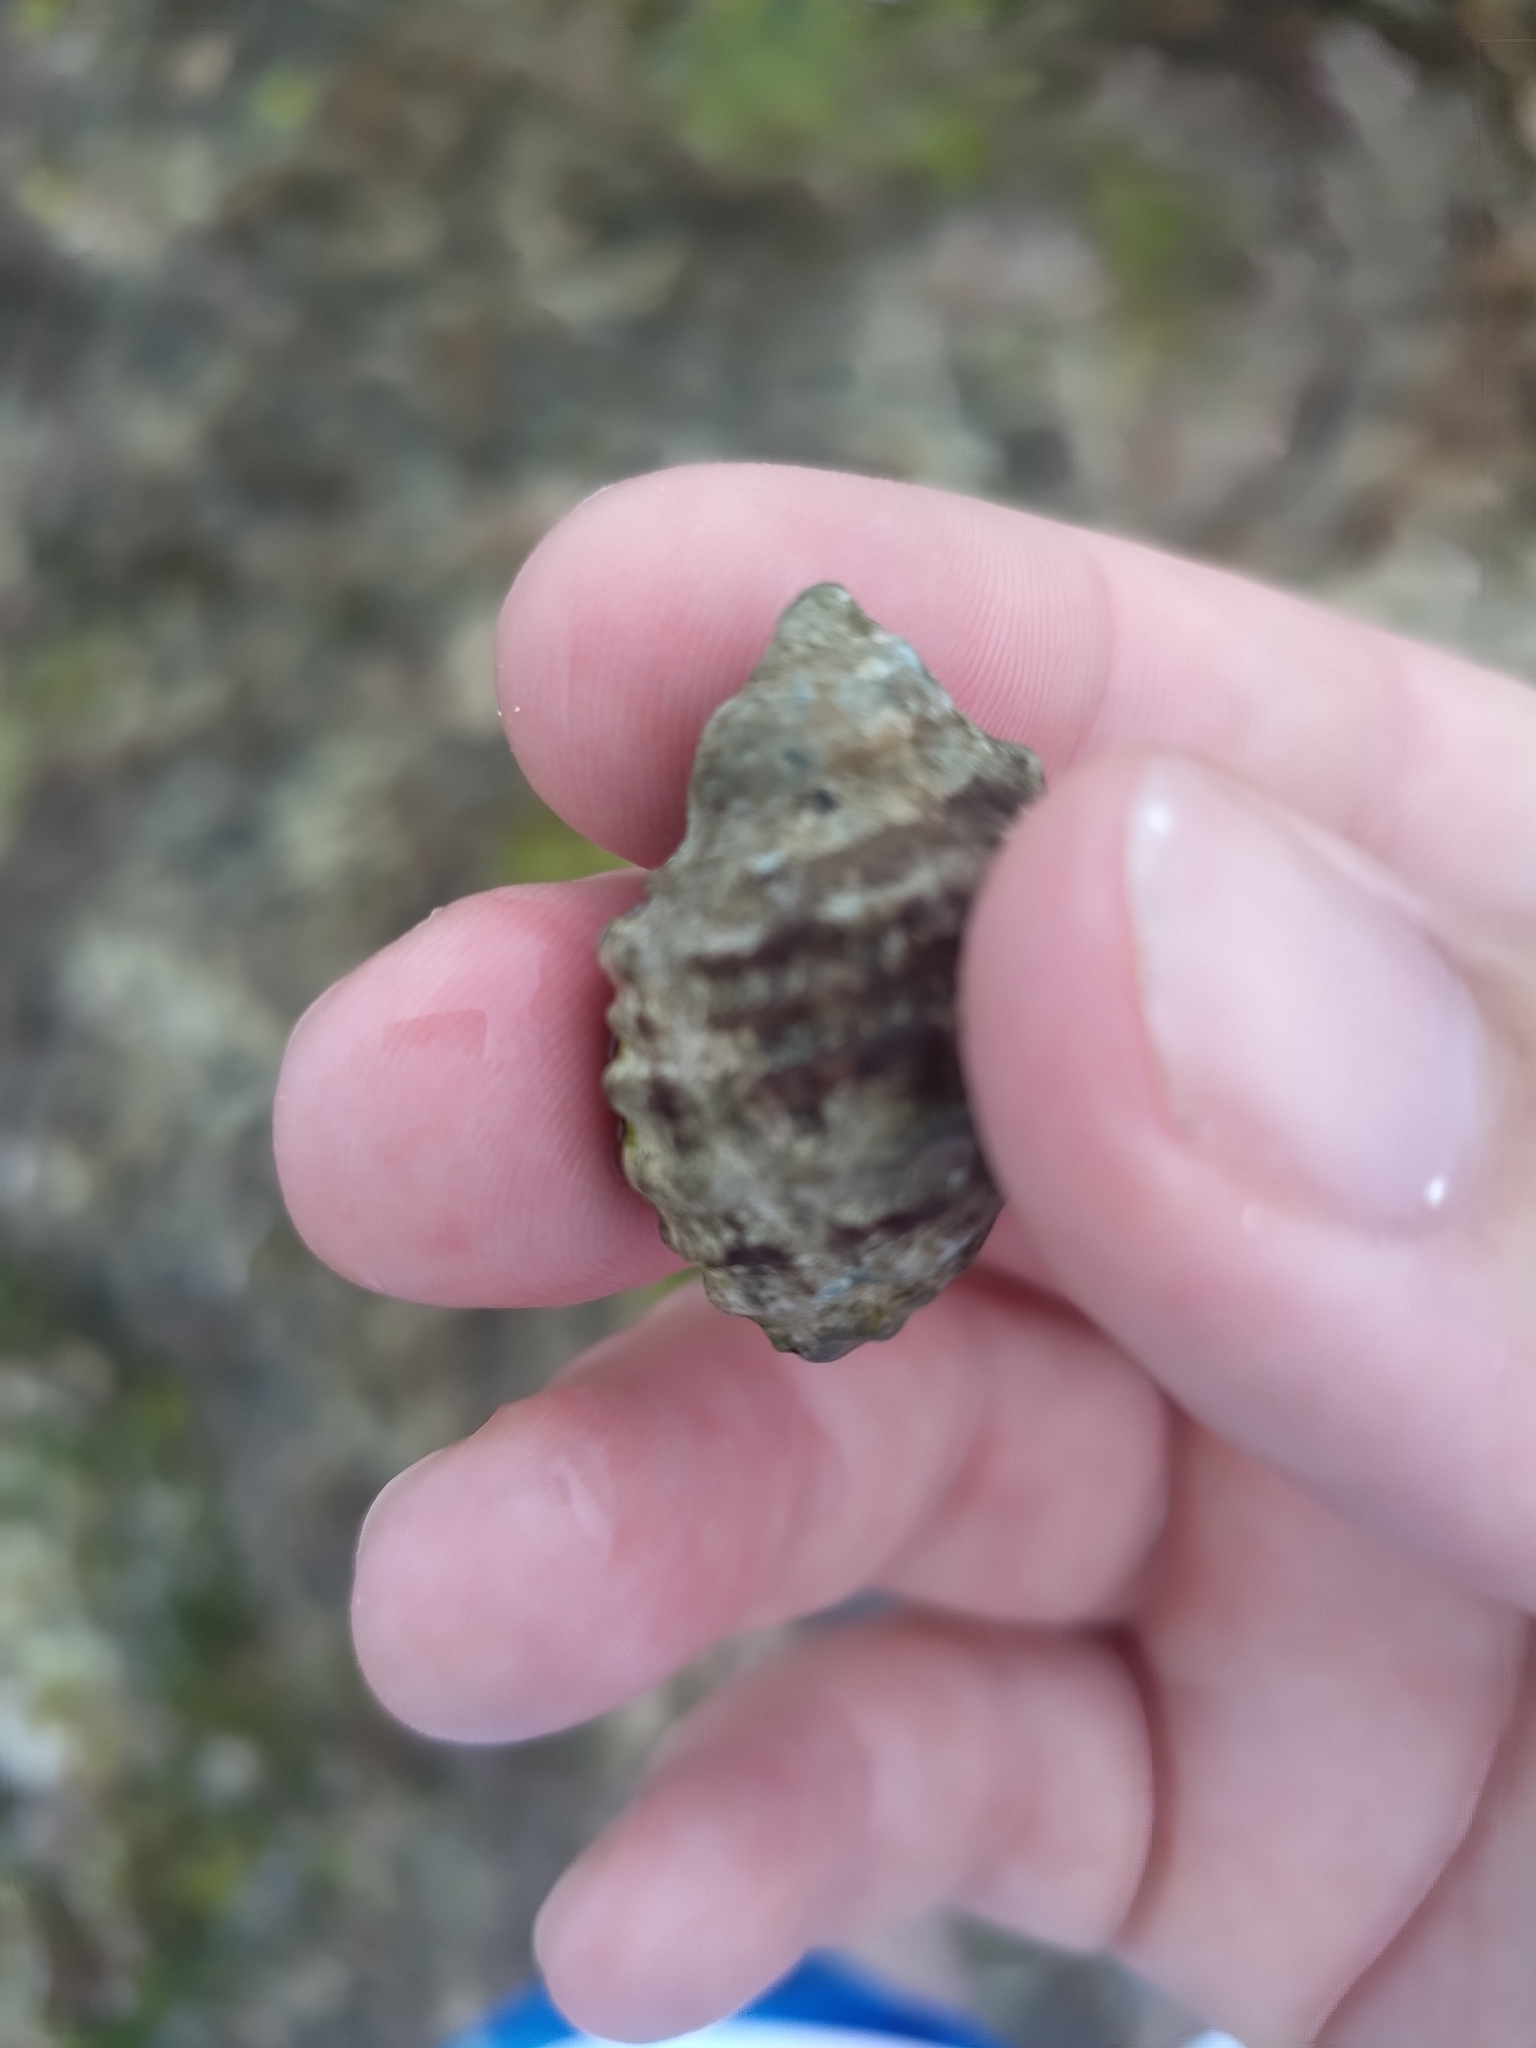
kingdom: Animalia
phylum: Mollusca
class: Gastropoda
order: Neogastropoda
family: Muricidae
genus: Plicopurpura
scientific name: Plicopurpura patula
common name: Wide-mouthed dye shell
